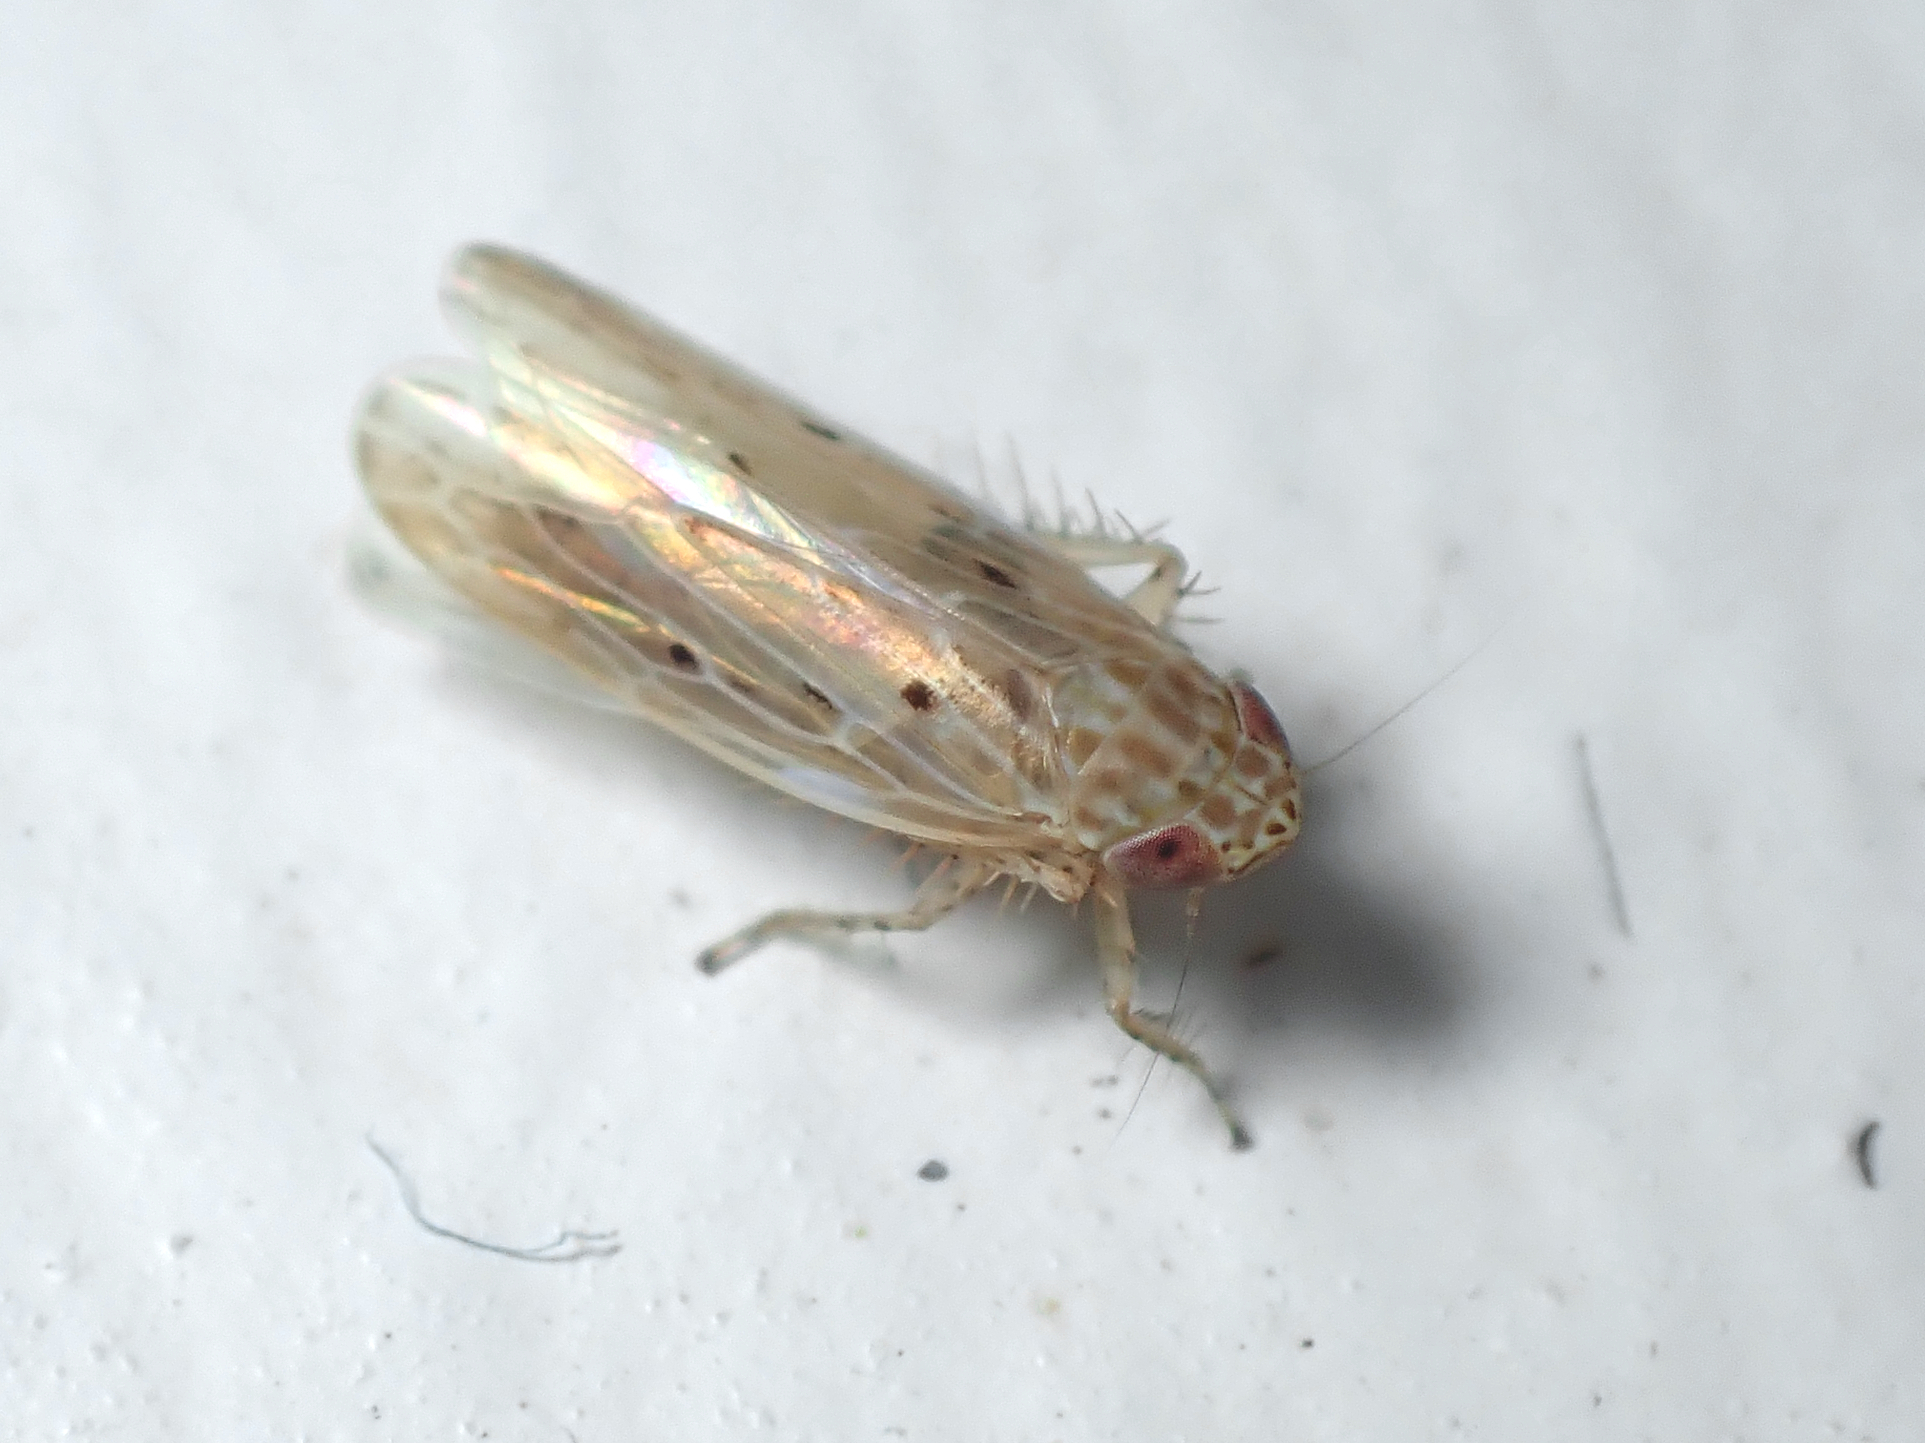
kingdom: Animalia
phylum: Arthropoda
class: Insecta
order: Hemiptera
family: Cicadellidae
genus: Maiestas
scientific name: Maiestas vetus
